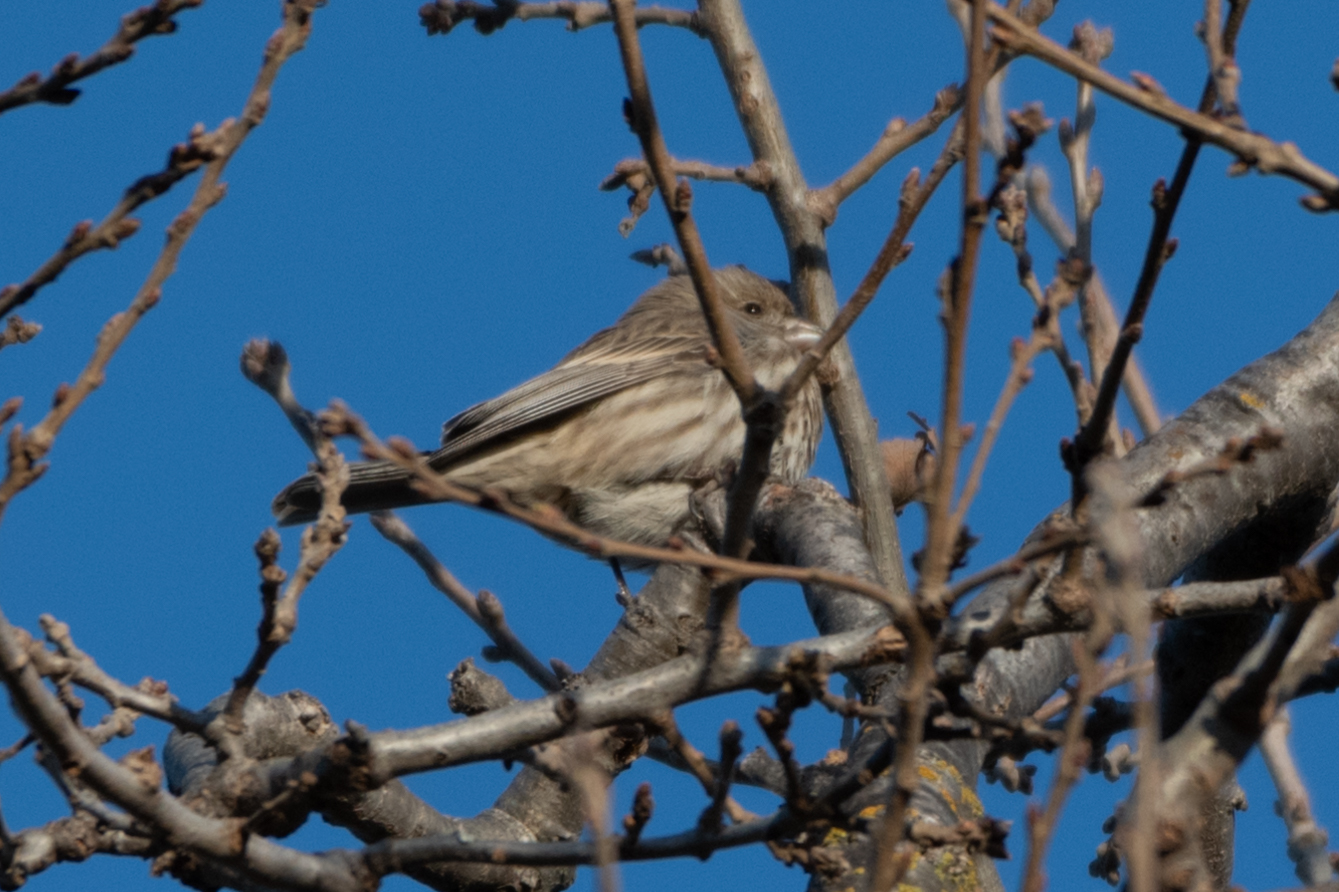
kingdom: Animalia
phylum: Chordata
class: Aves
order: Passeriformes
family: Fringillidae
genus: Haemorhous
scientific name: Haemorhous mexicanus
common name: House finch
